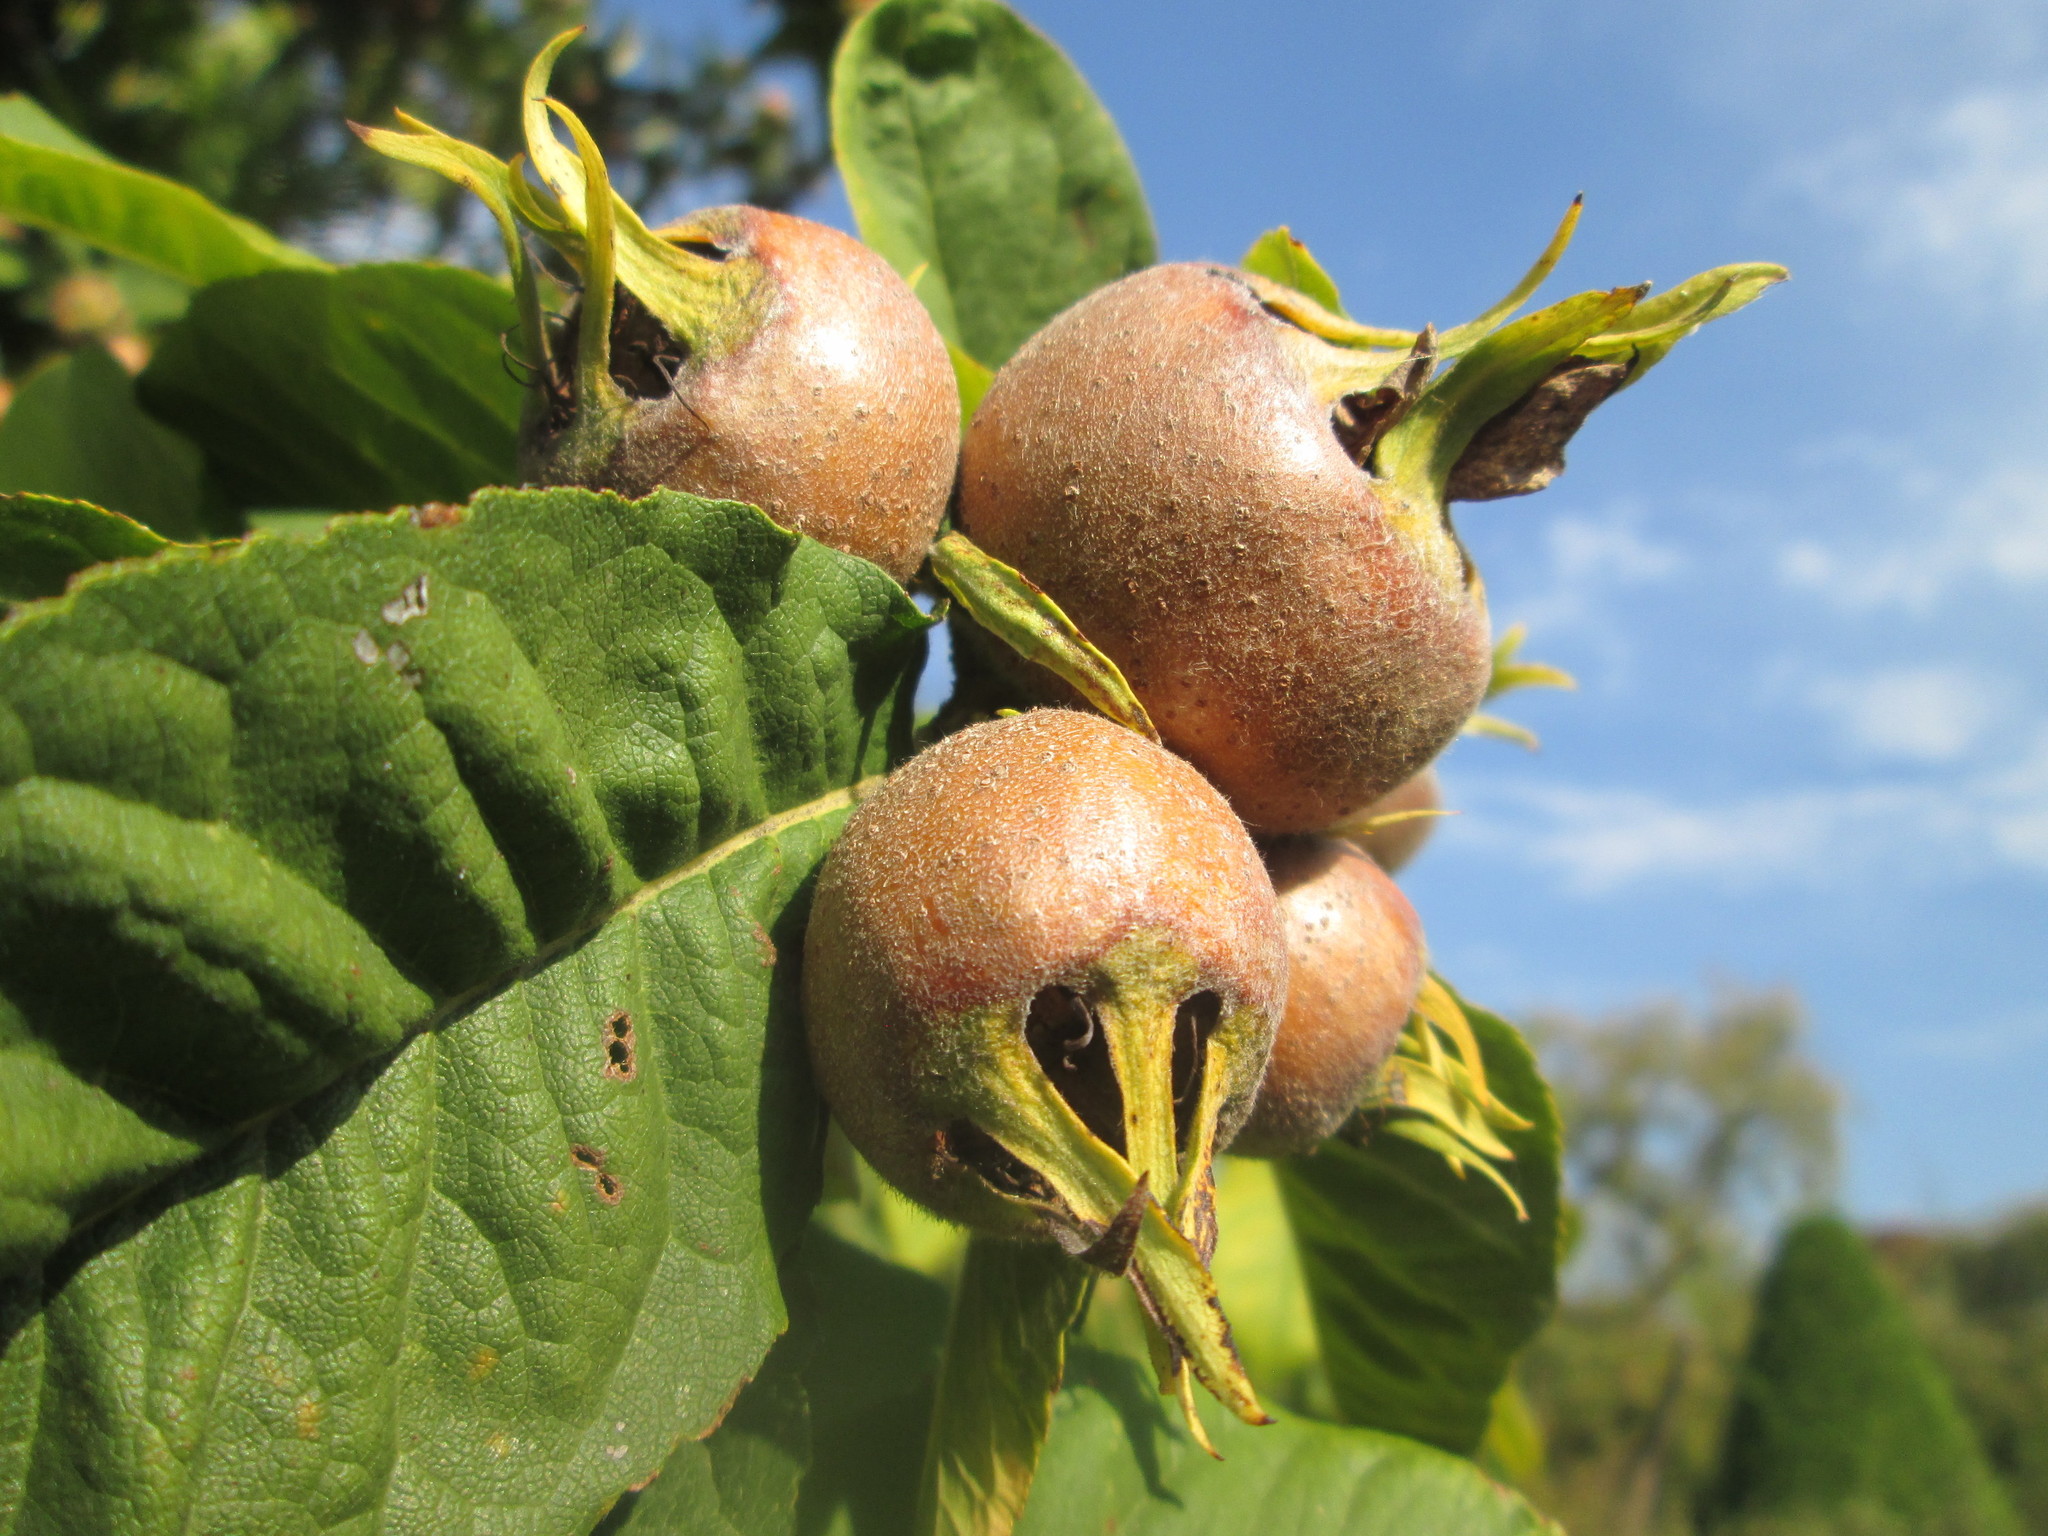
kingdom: Plantae
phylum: Tracheophyta
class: Magnoliopsida
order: Rosales
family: Rosaceae
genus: Mespilus
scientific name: Mespilus germanica
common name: Medlar
